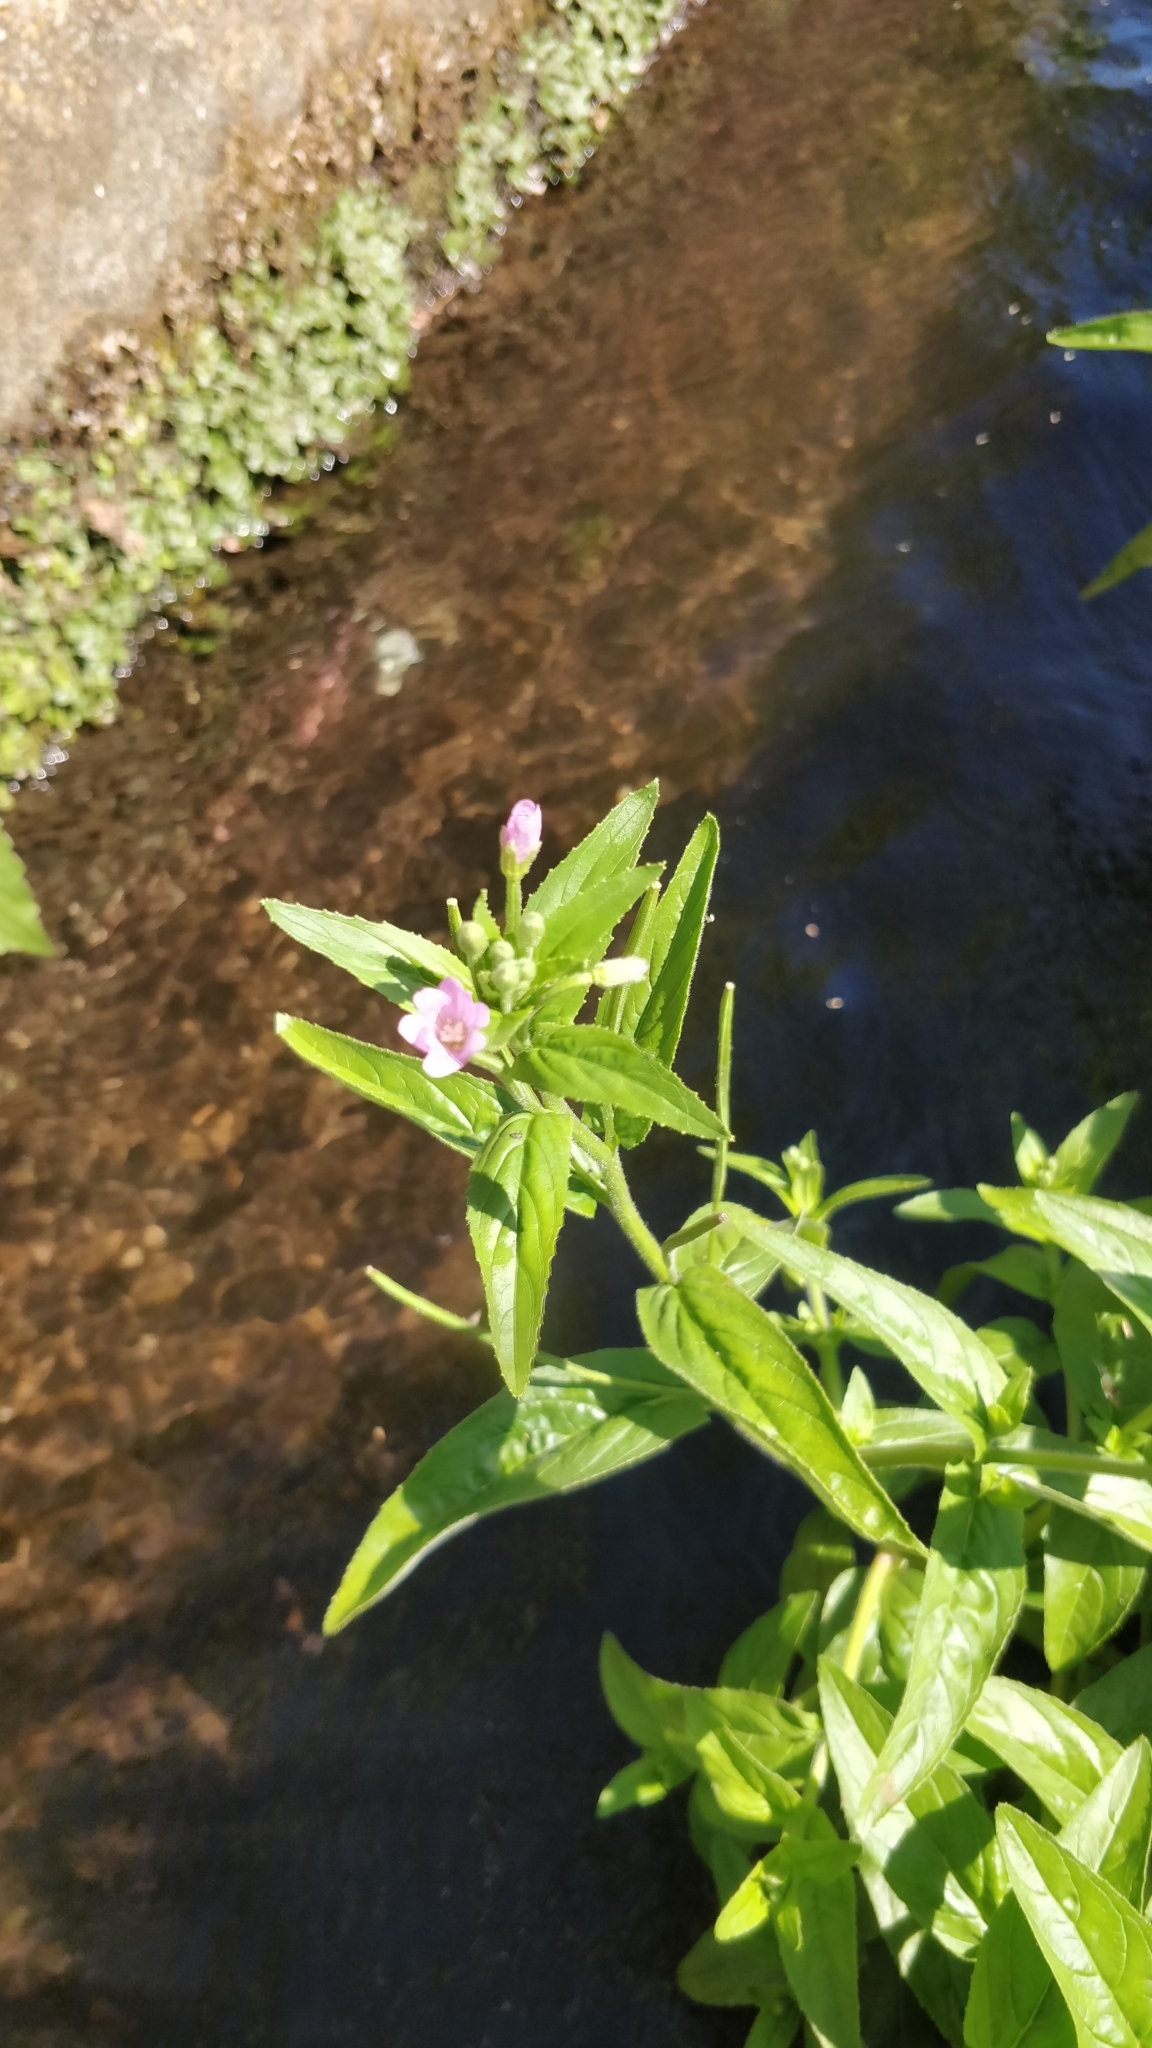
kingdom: Plantae
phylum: Tracheophyta
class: Magnoliopsida
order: Myrtales
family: Onagraceae
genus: Epilobium
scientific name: Epilobium parviflorum
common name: Hoary willowherb
